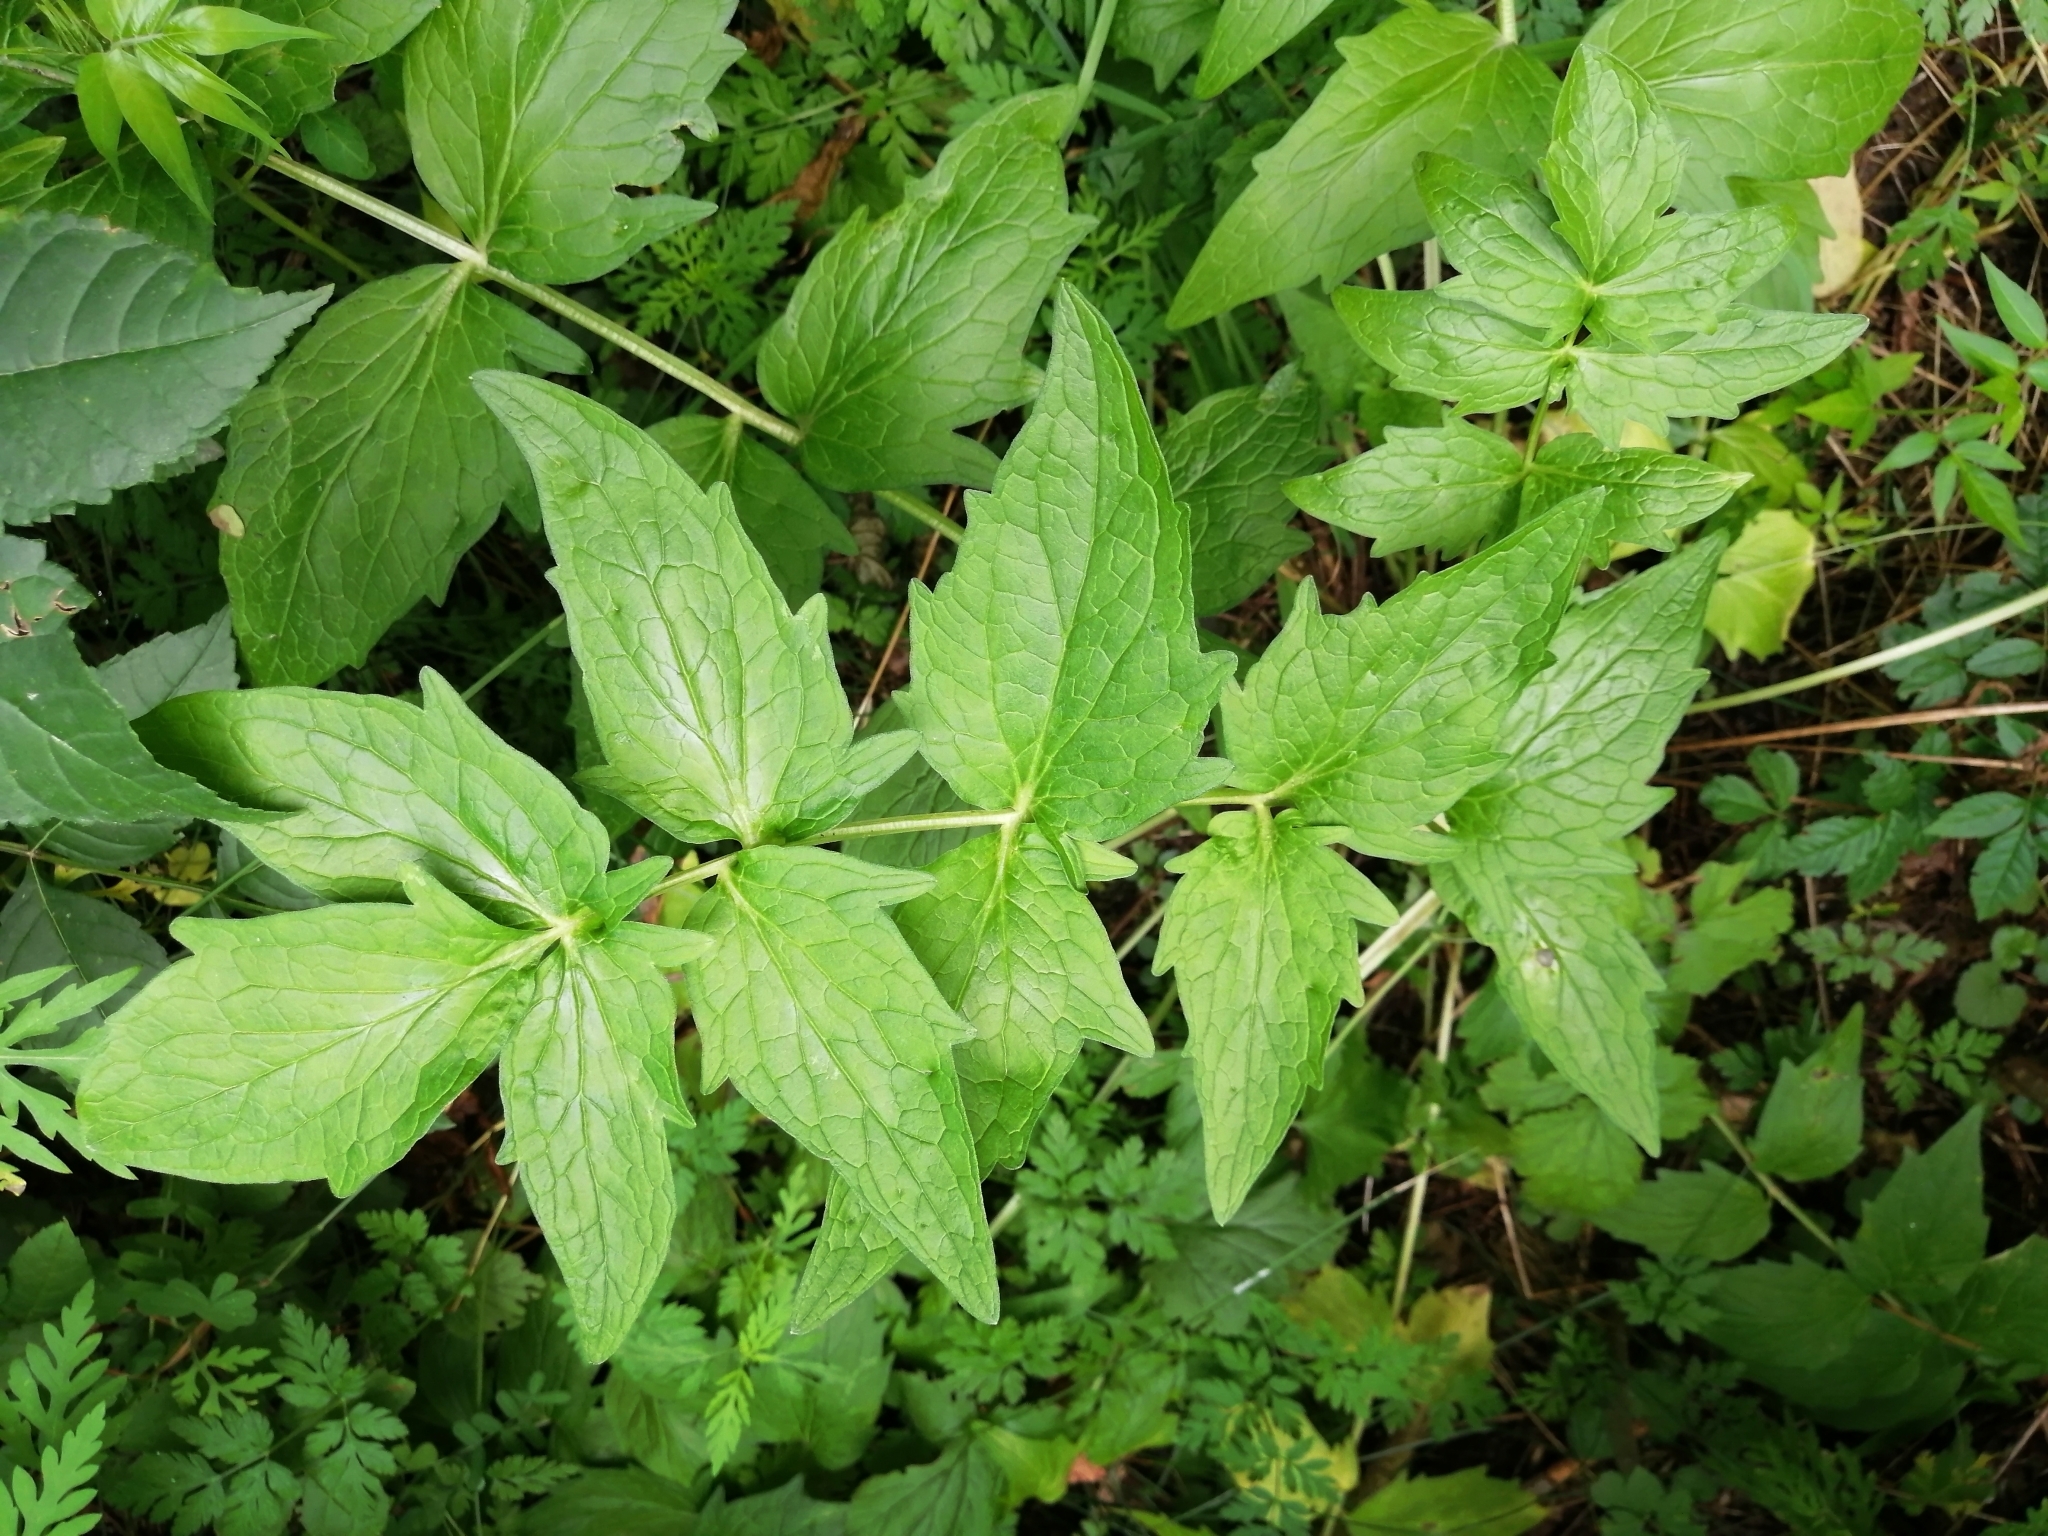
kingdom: Plantae
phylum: Tracheophyta
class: Magnoliopsida
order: Dipsacales
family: Caprifoliaceae
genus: Valeriana
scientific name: Valeriana officinalis
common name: Common valerian
